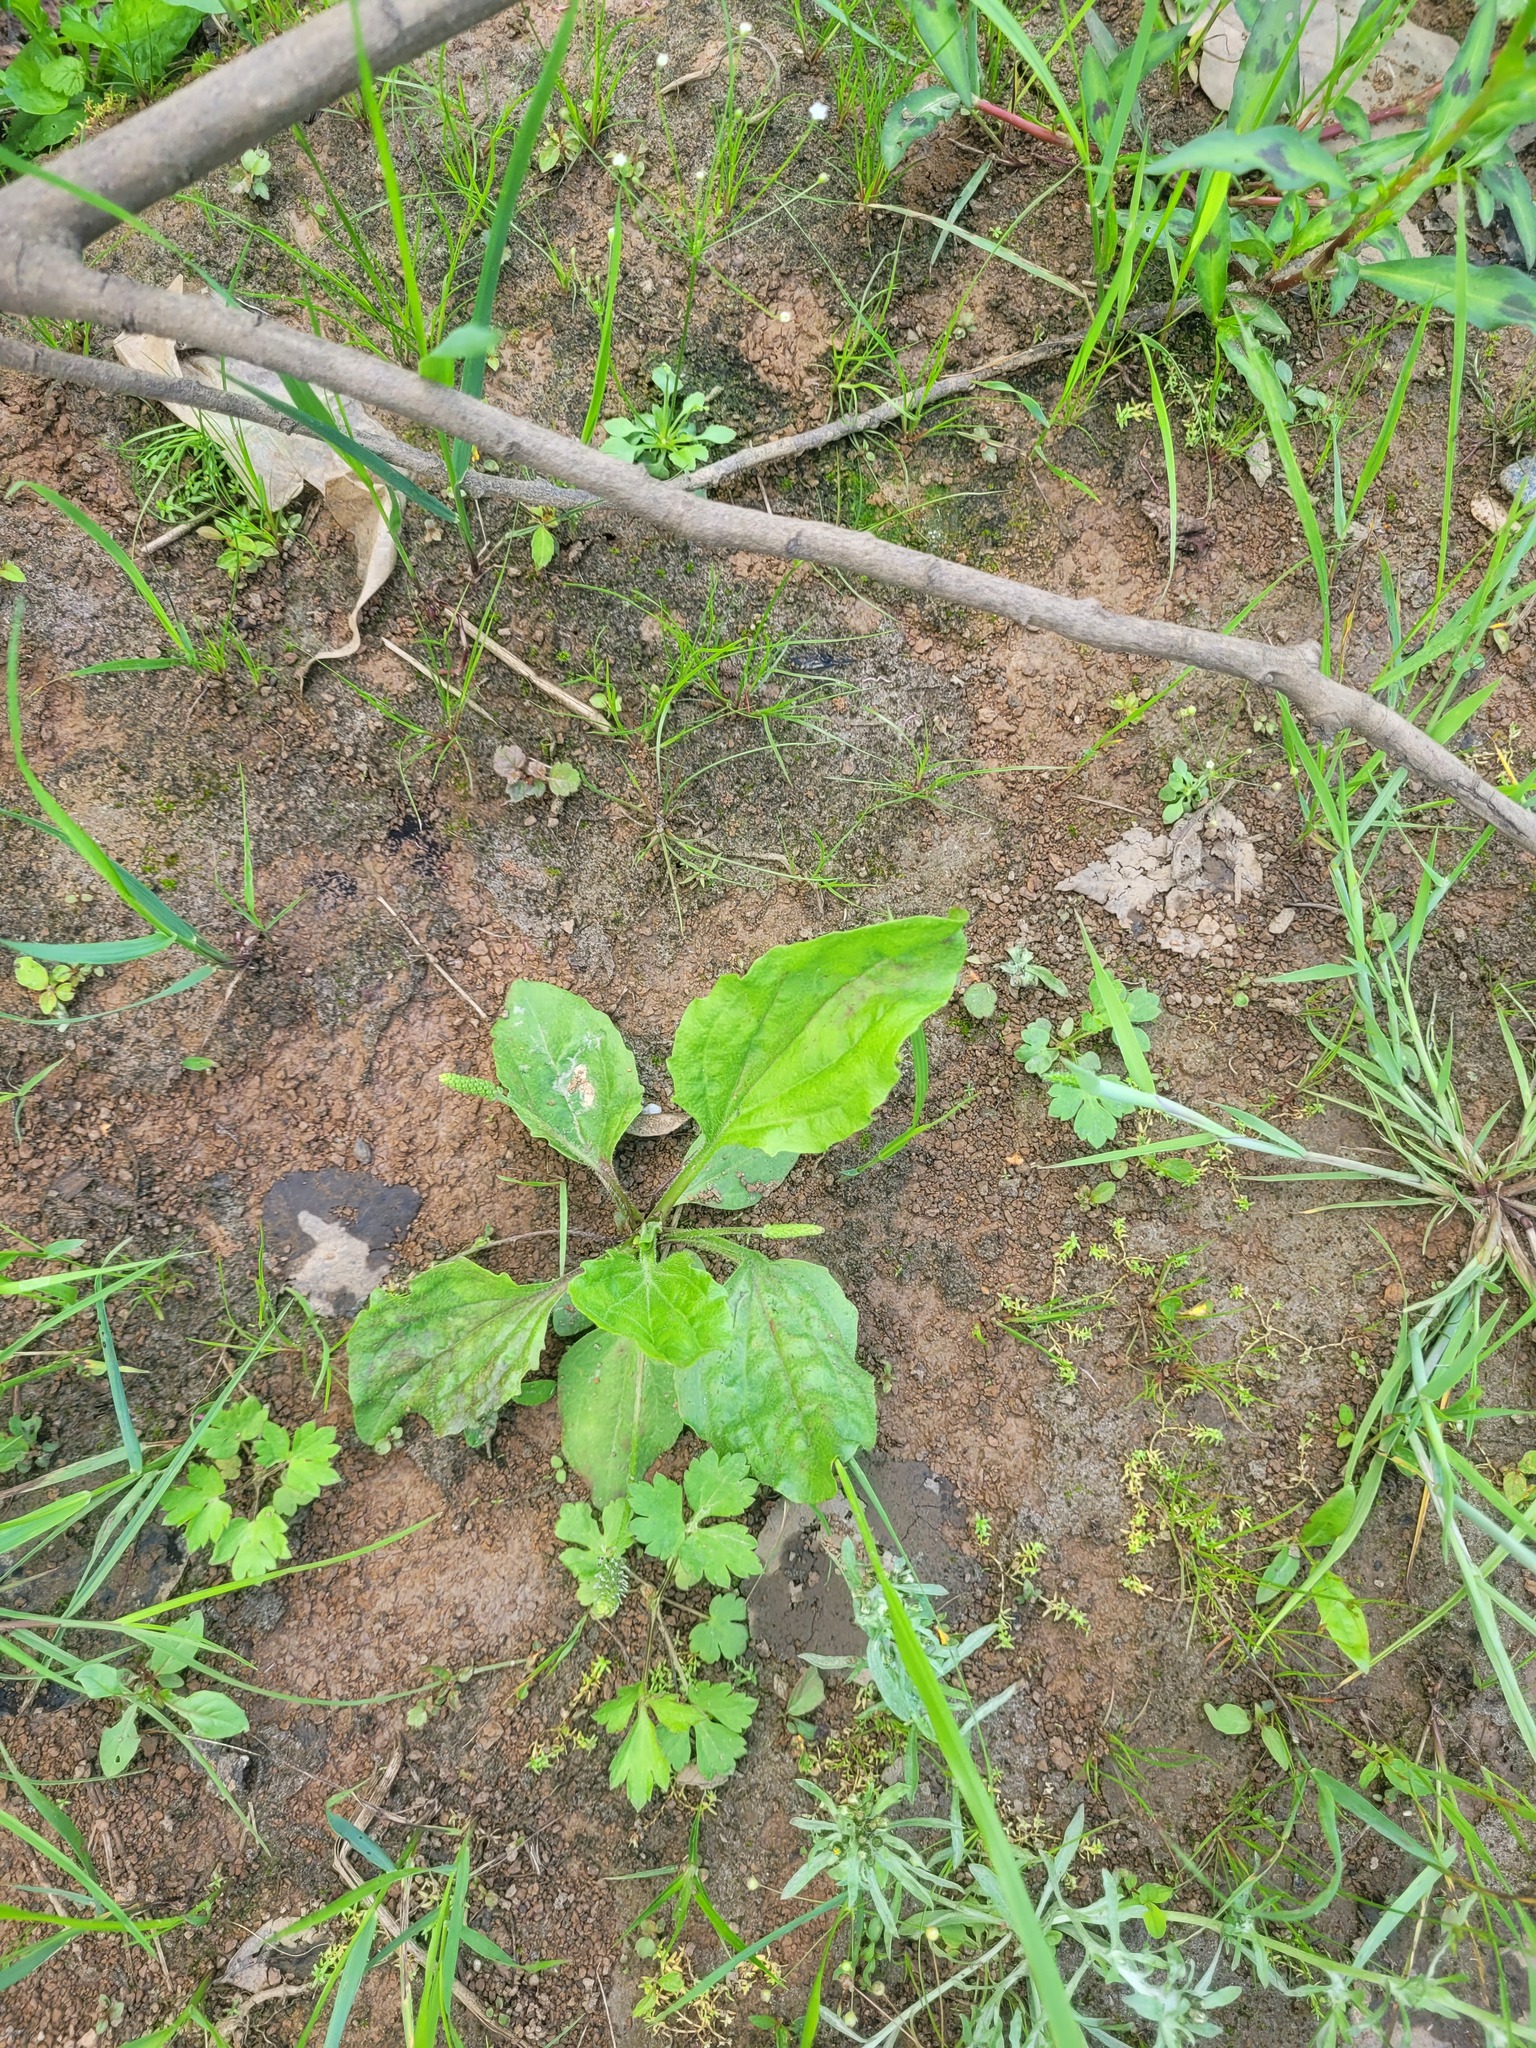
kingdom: Plantae
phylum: Tracheophyta
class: Magnoliopsida
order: Lamiales
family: Plantaginaceae
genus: Plantago
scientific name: Plantago major
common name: Common plantain
